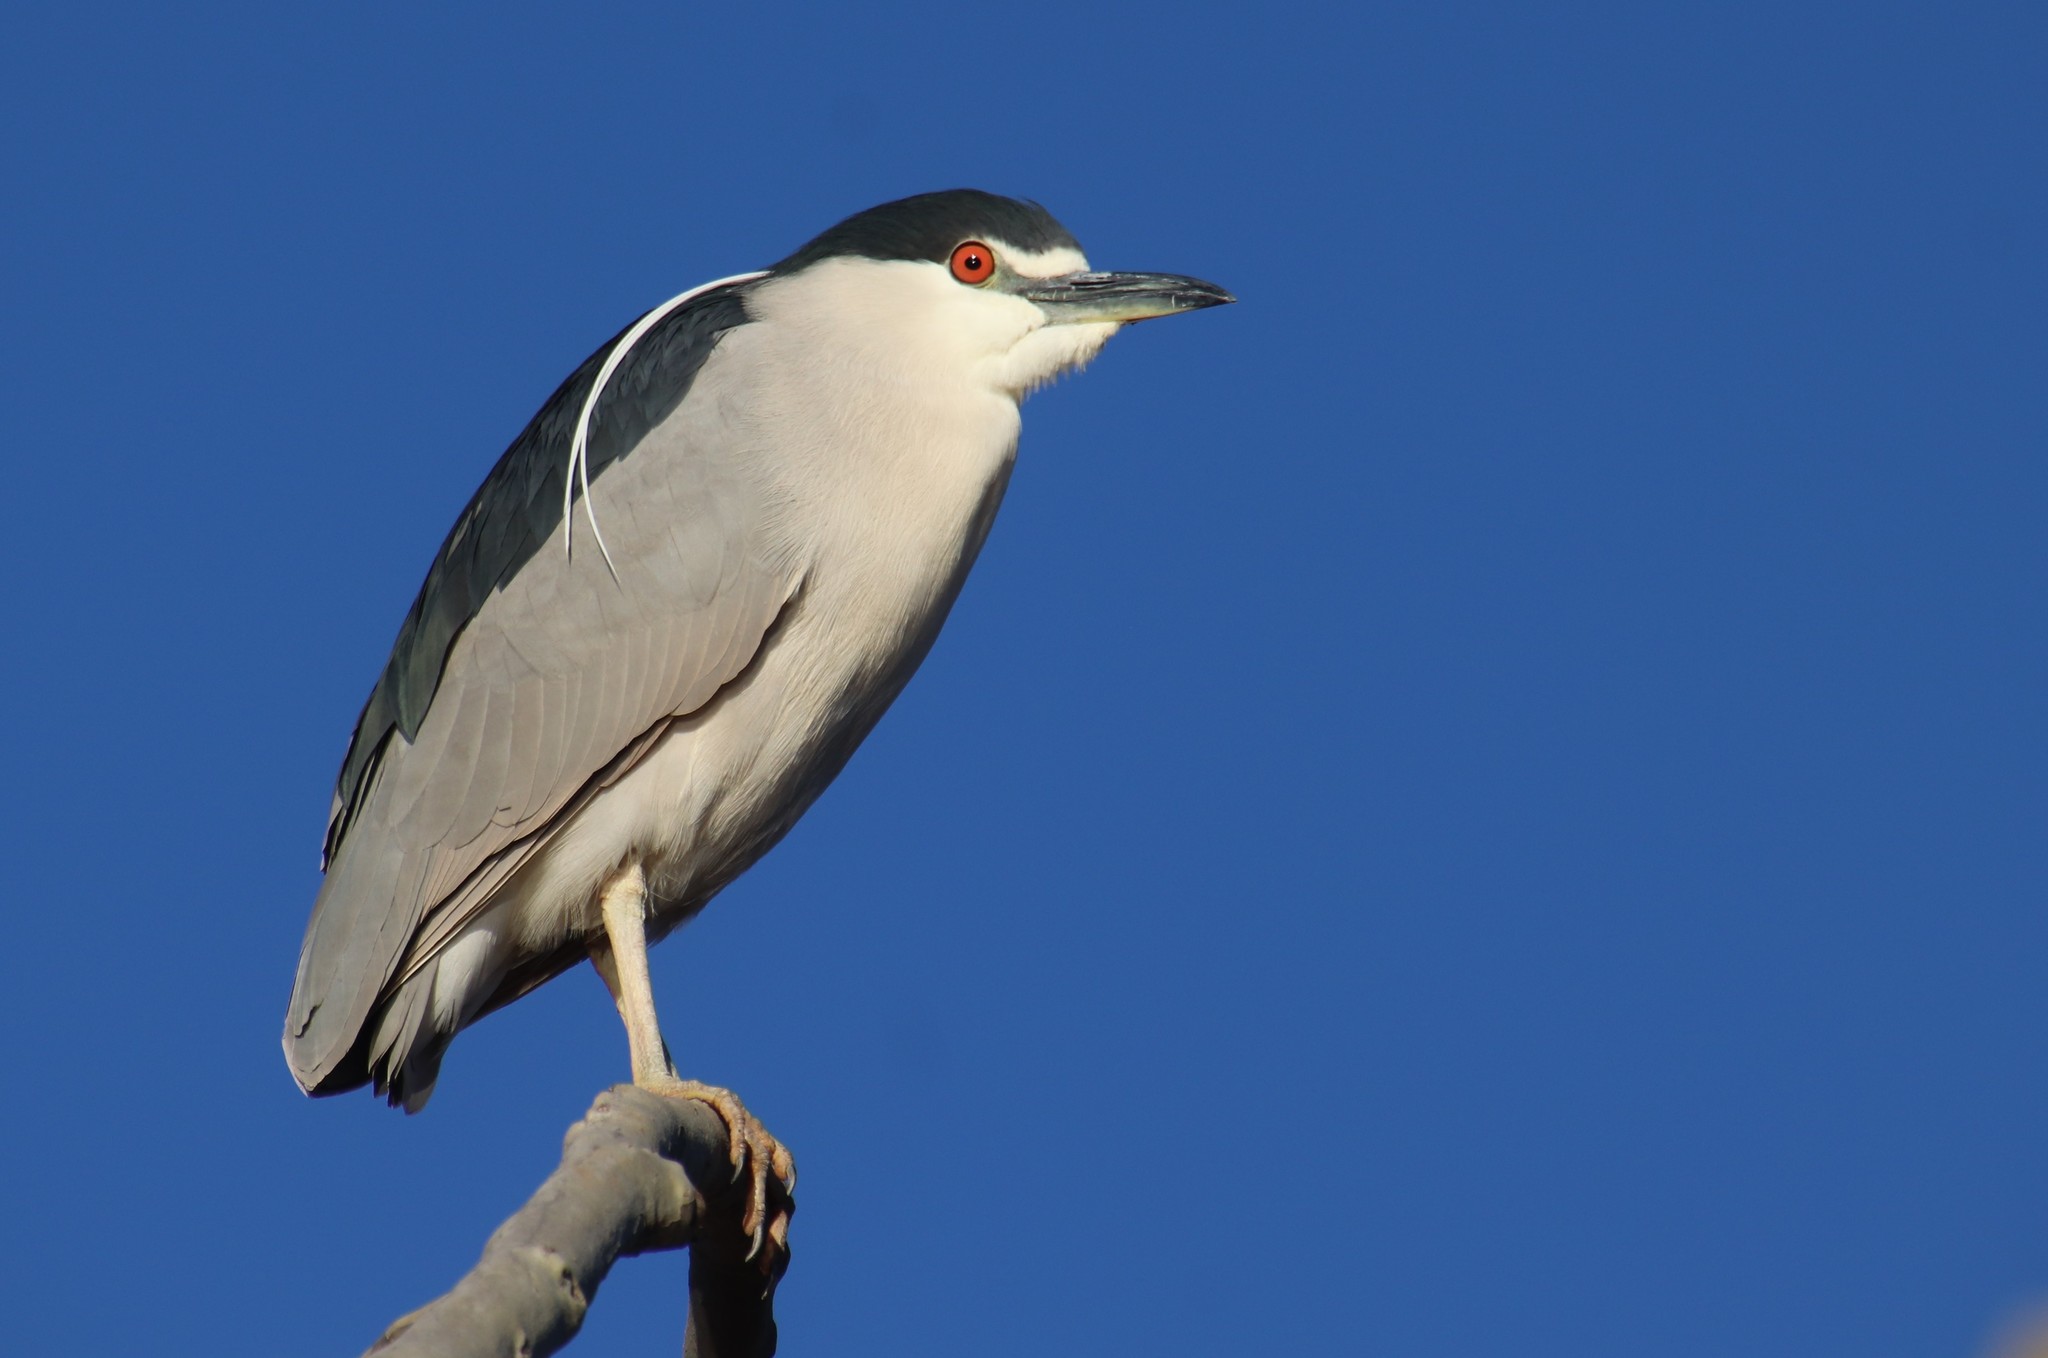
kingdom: Animalia
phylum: Chordata
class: Aves
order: Pelecaniformes
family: Ardeidae
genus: Nycticorax
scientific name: Nycticorax nycticorax
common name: Black-crowned night heron
